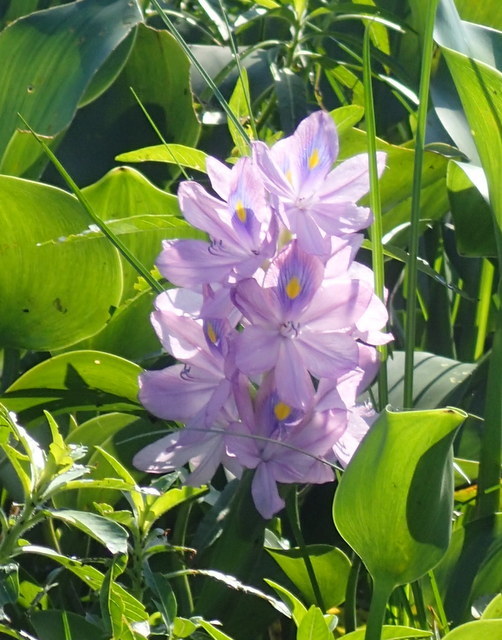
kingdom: Plantae
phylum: Tracheophyta
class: Liliopsida
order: Commelinales
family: Pontederiaceae
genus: Pontederia
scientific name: Pontederia crassipes
